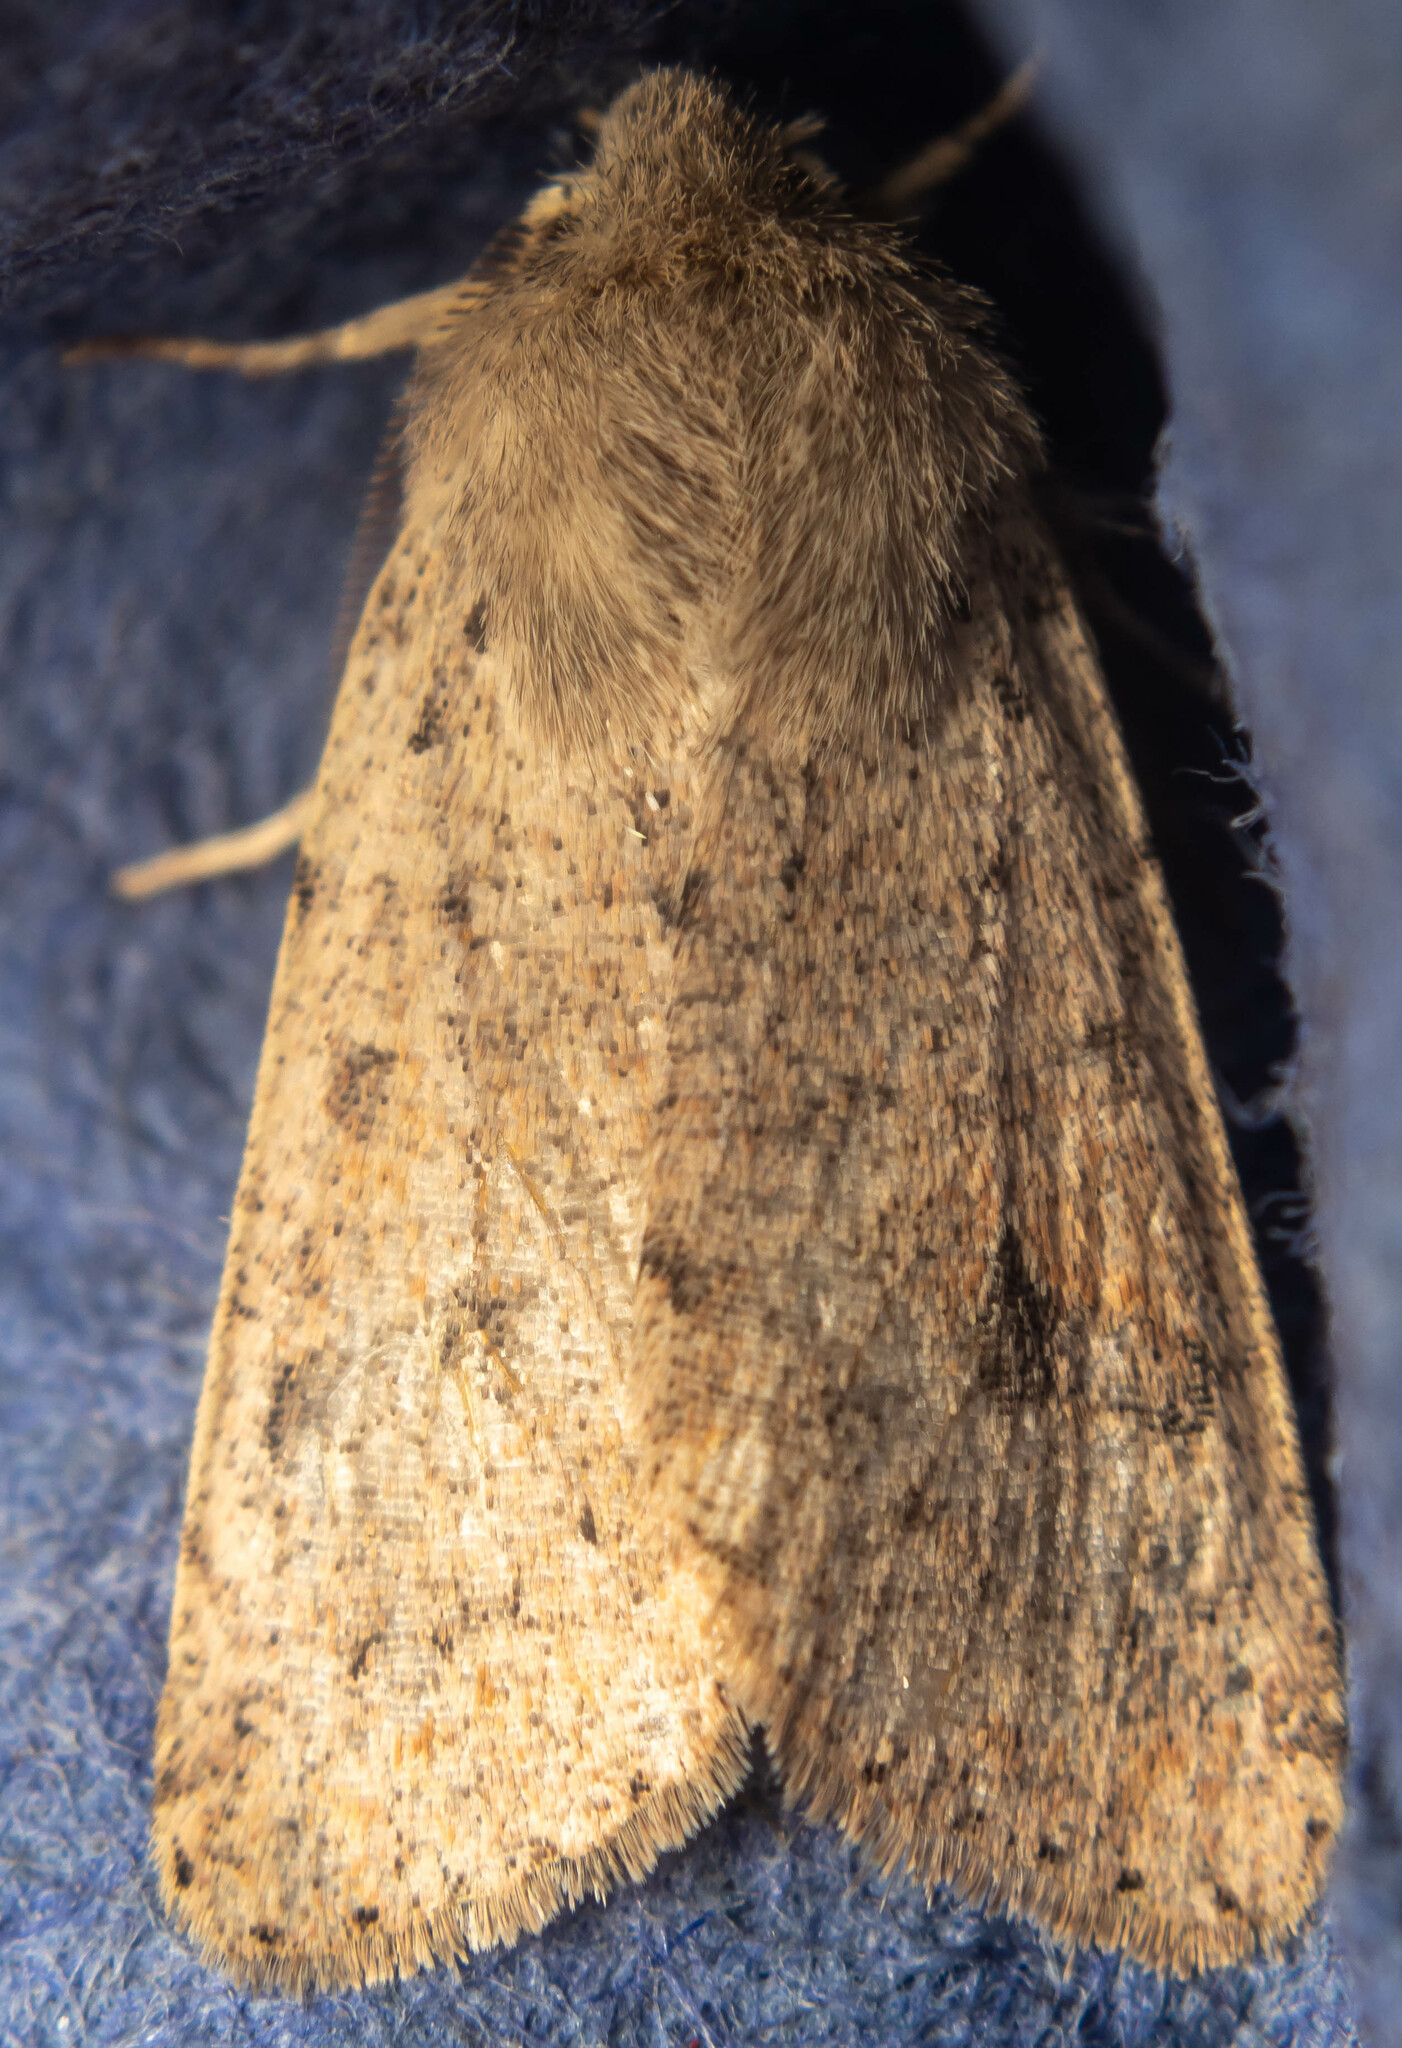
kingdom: Animalia
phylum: Arthropoda
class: Insecta
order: Lepidoptera
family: Noctuidae
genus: Orthosia
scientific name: Orthosia cruda
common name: Small quaker
